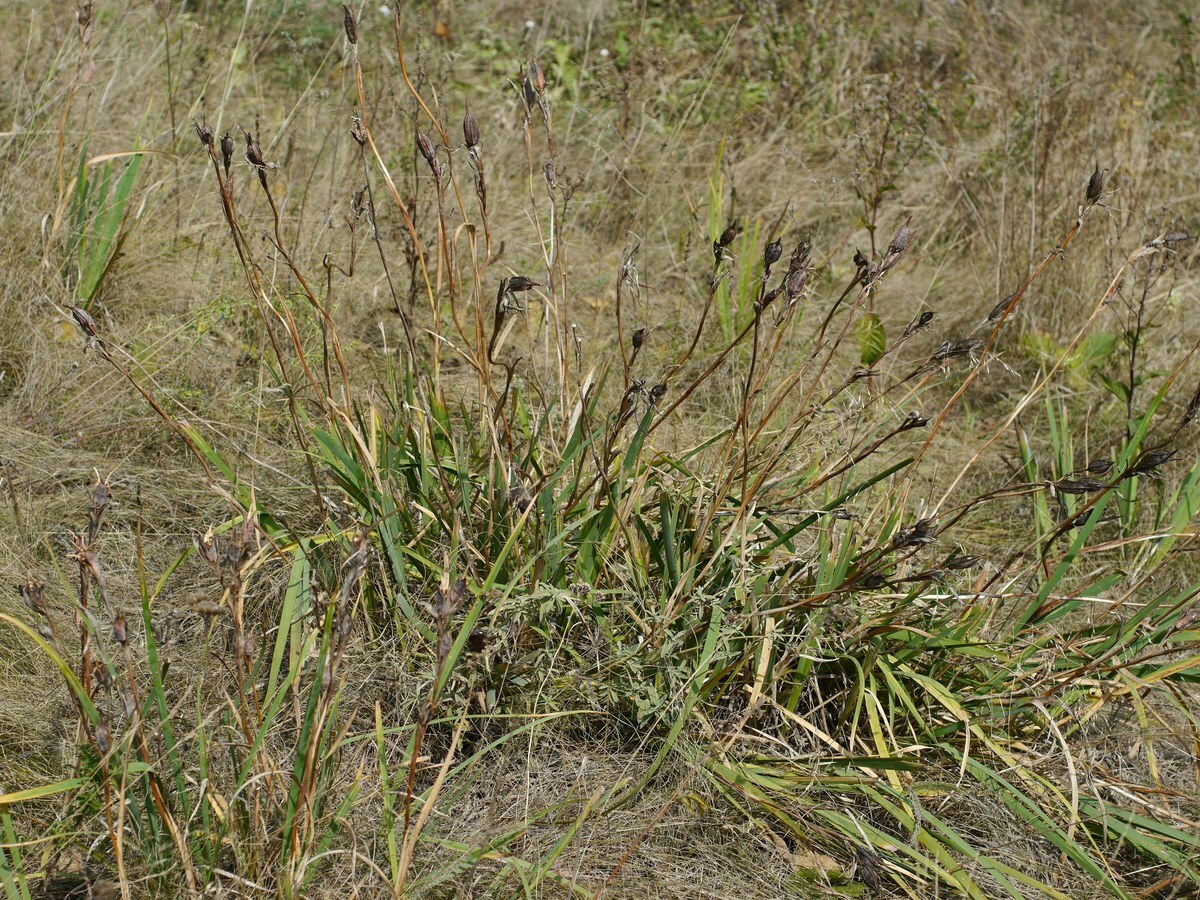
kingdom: Plantae
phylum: Tracheophyta
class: Liliopsida
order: Asparagales
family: Iridaceae
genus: Iris
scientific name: Iris halophila
